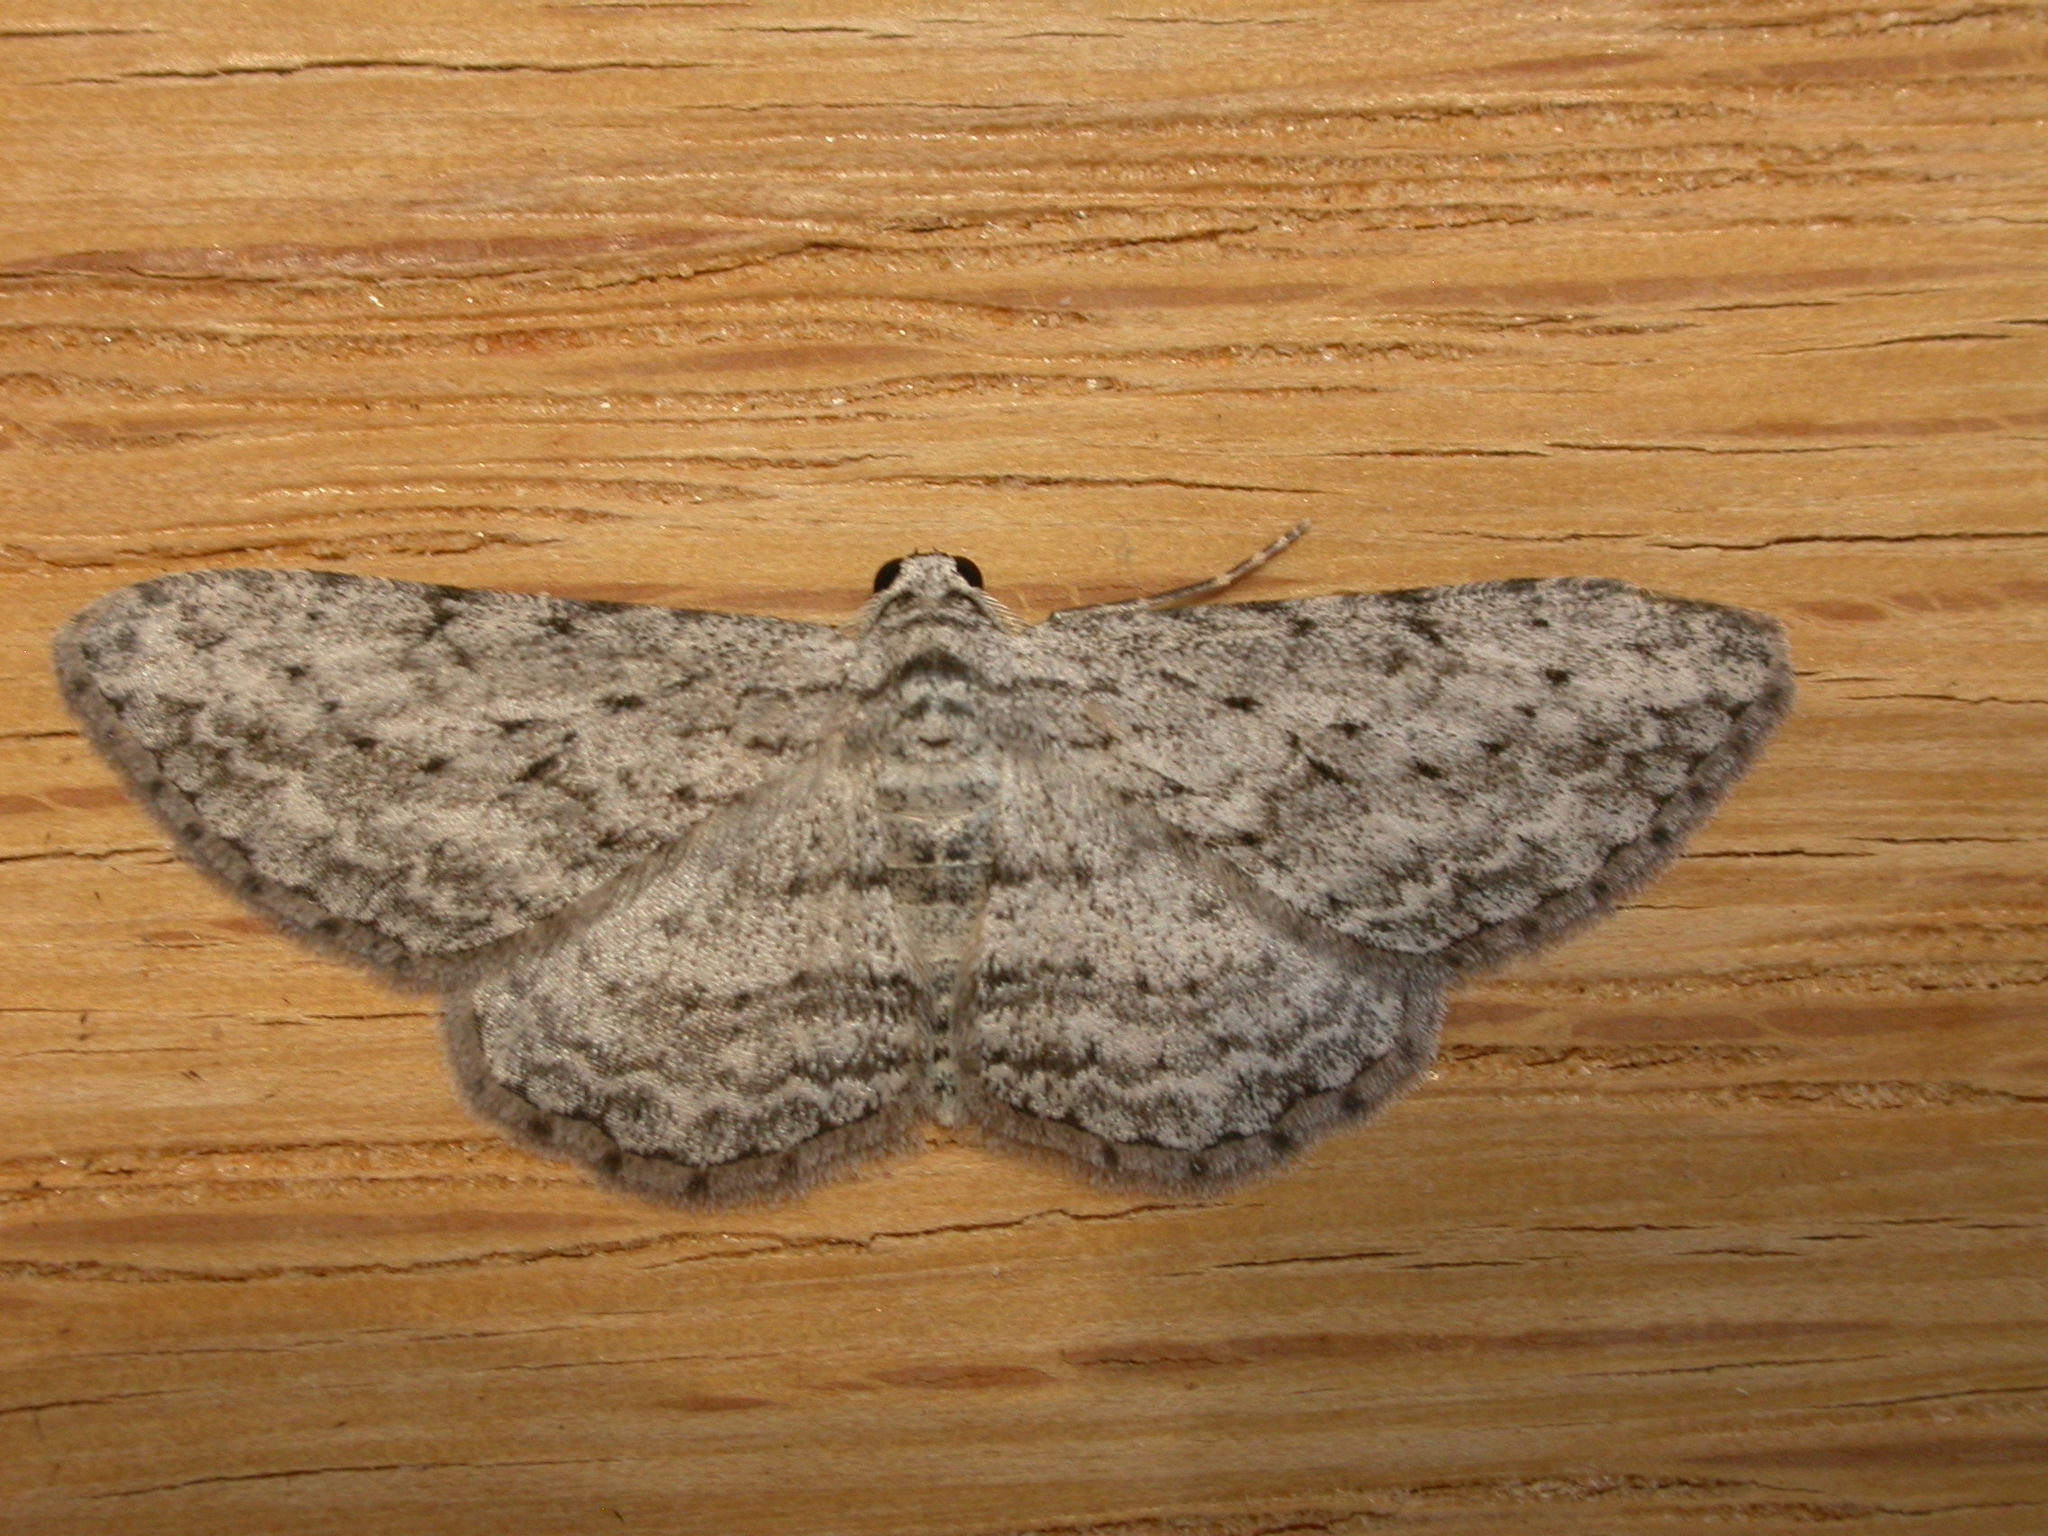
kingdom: Animalia
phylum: Arthropoda
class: Insecta
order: Lepidoptera
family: Geometridae
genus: Phelotis
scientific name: Phelotis cognata
